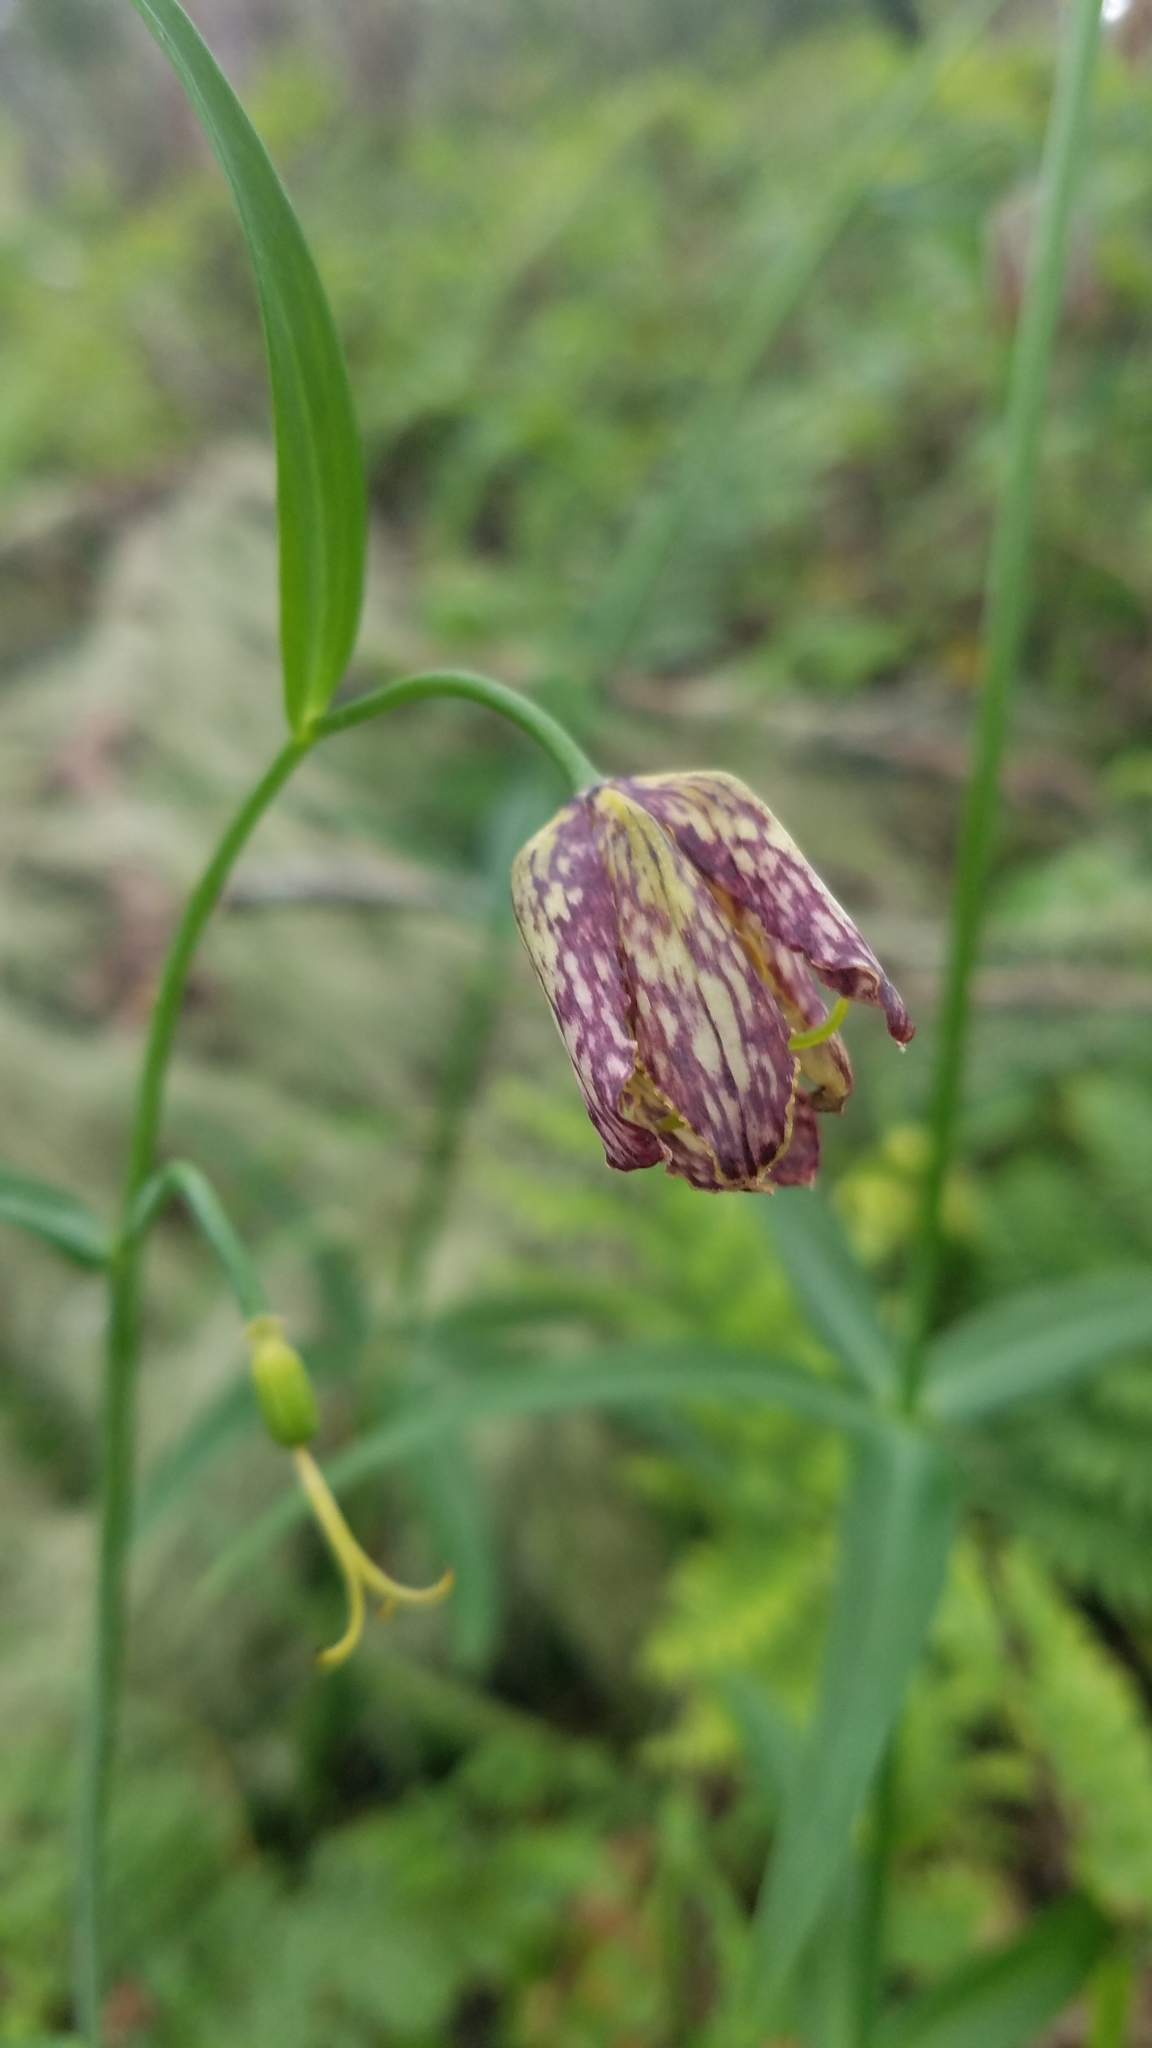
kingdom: Plantae
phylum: Tracheophyta
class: Liliopsida
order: Liliales
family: Liliaceae
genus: Fritillaria
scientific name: Fritillaria affinis
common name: Ojai fritillary
